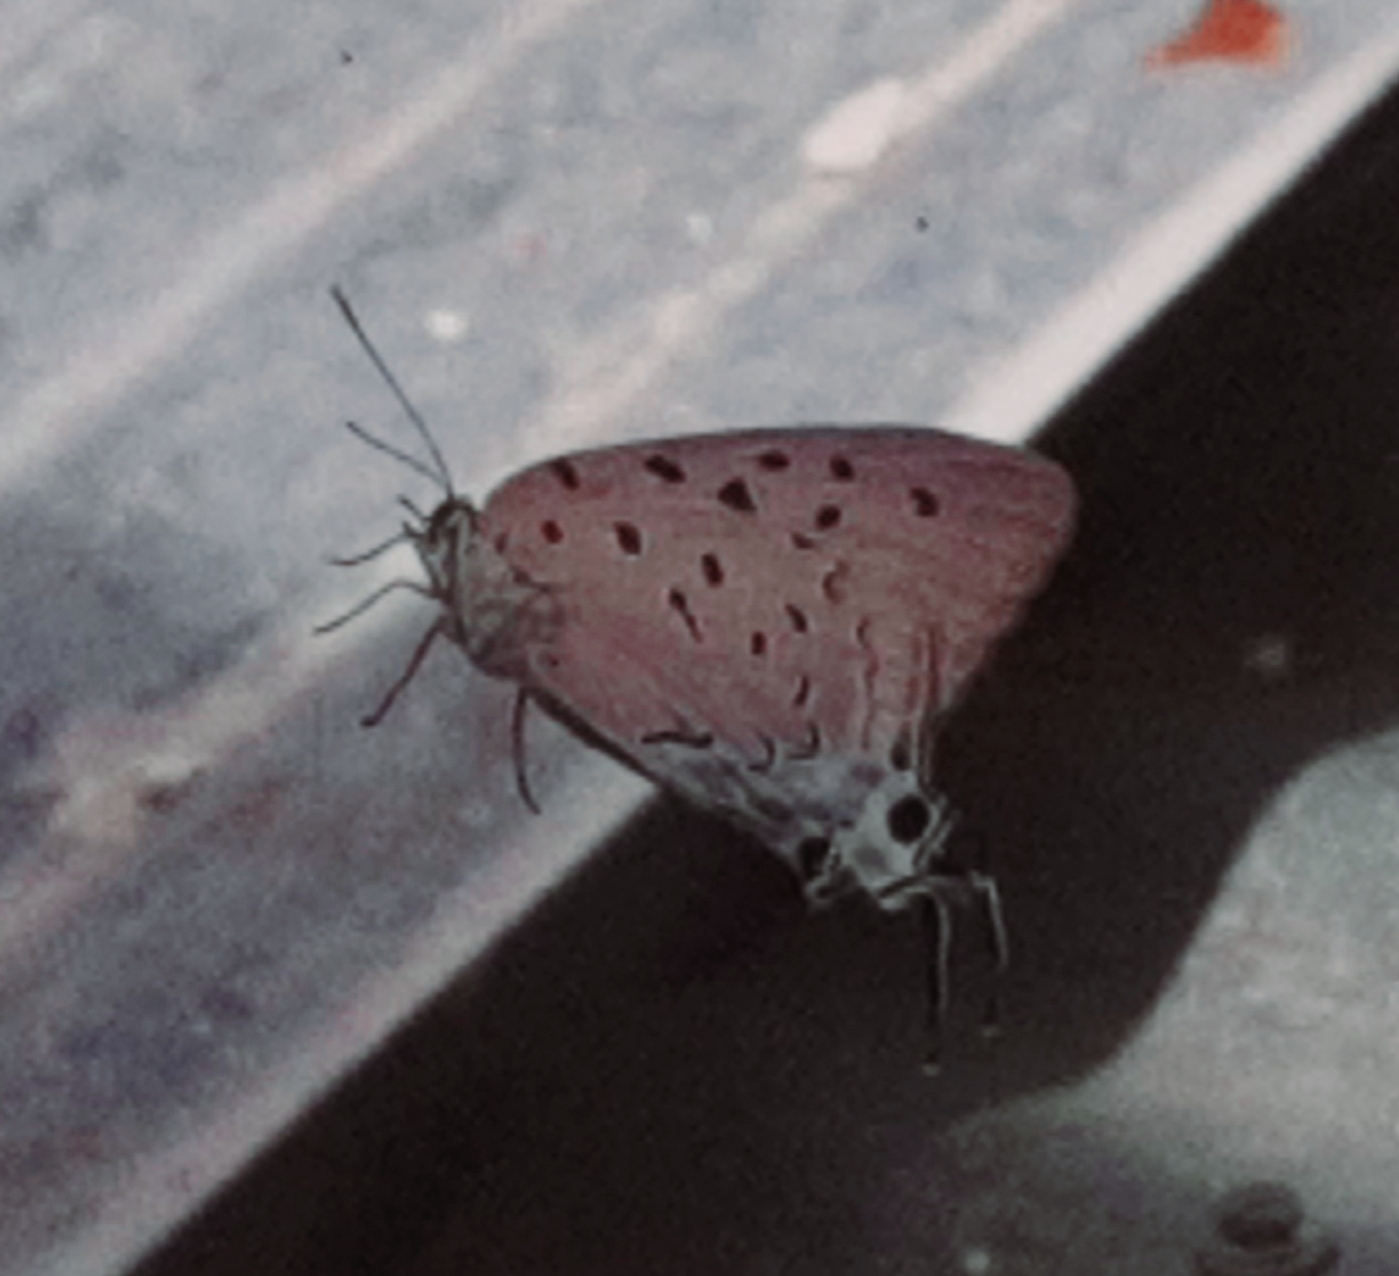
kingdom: Animalia
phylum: Arthropoda
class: Insecta
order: Lepidoptera
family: Lycaenidae
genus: Pseudolycaena
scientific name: Pseudolycaena damo
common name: Sky-blue hairstreak
